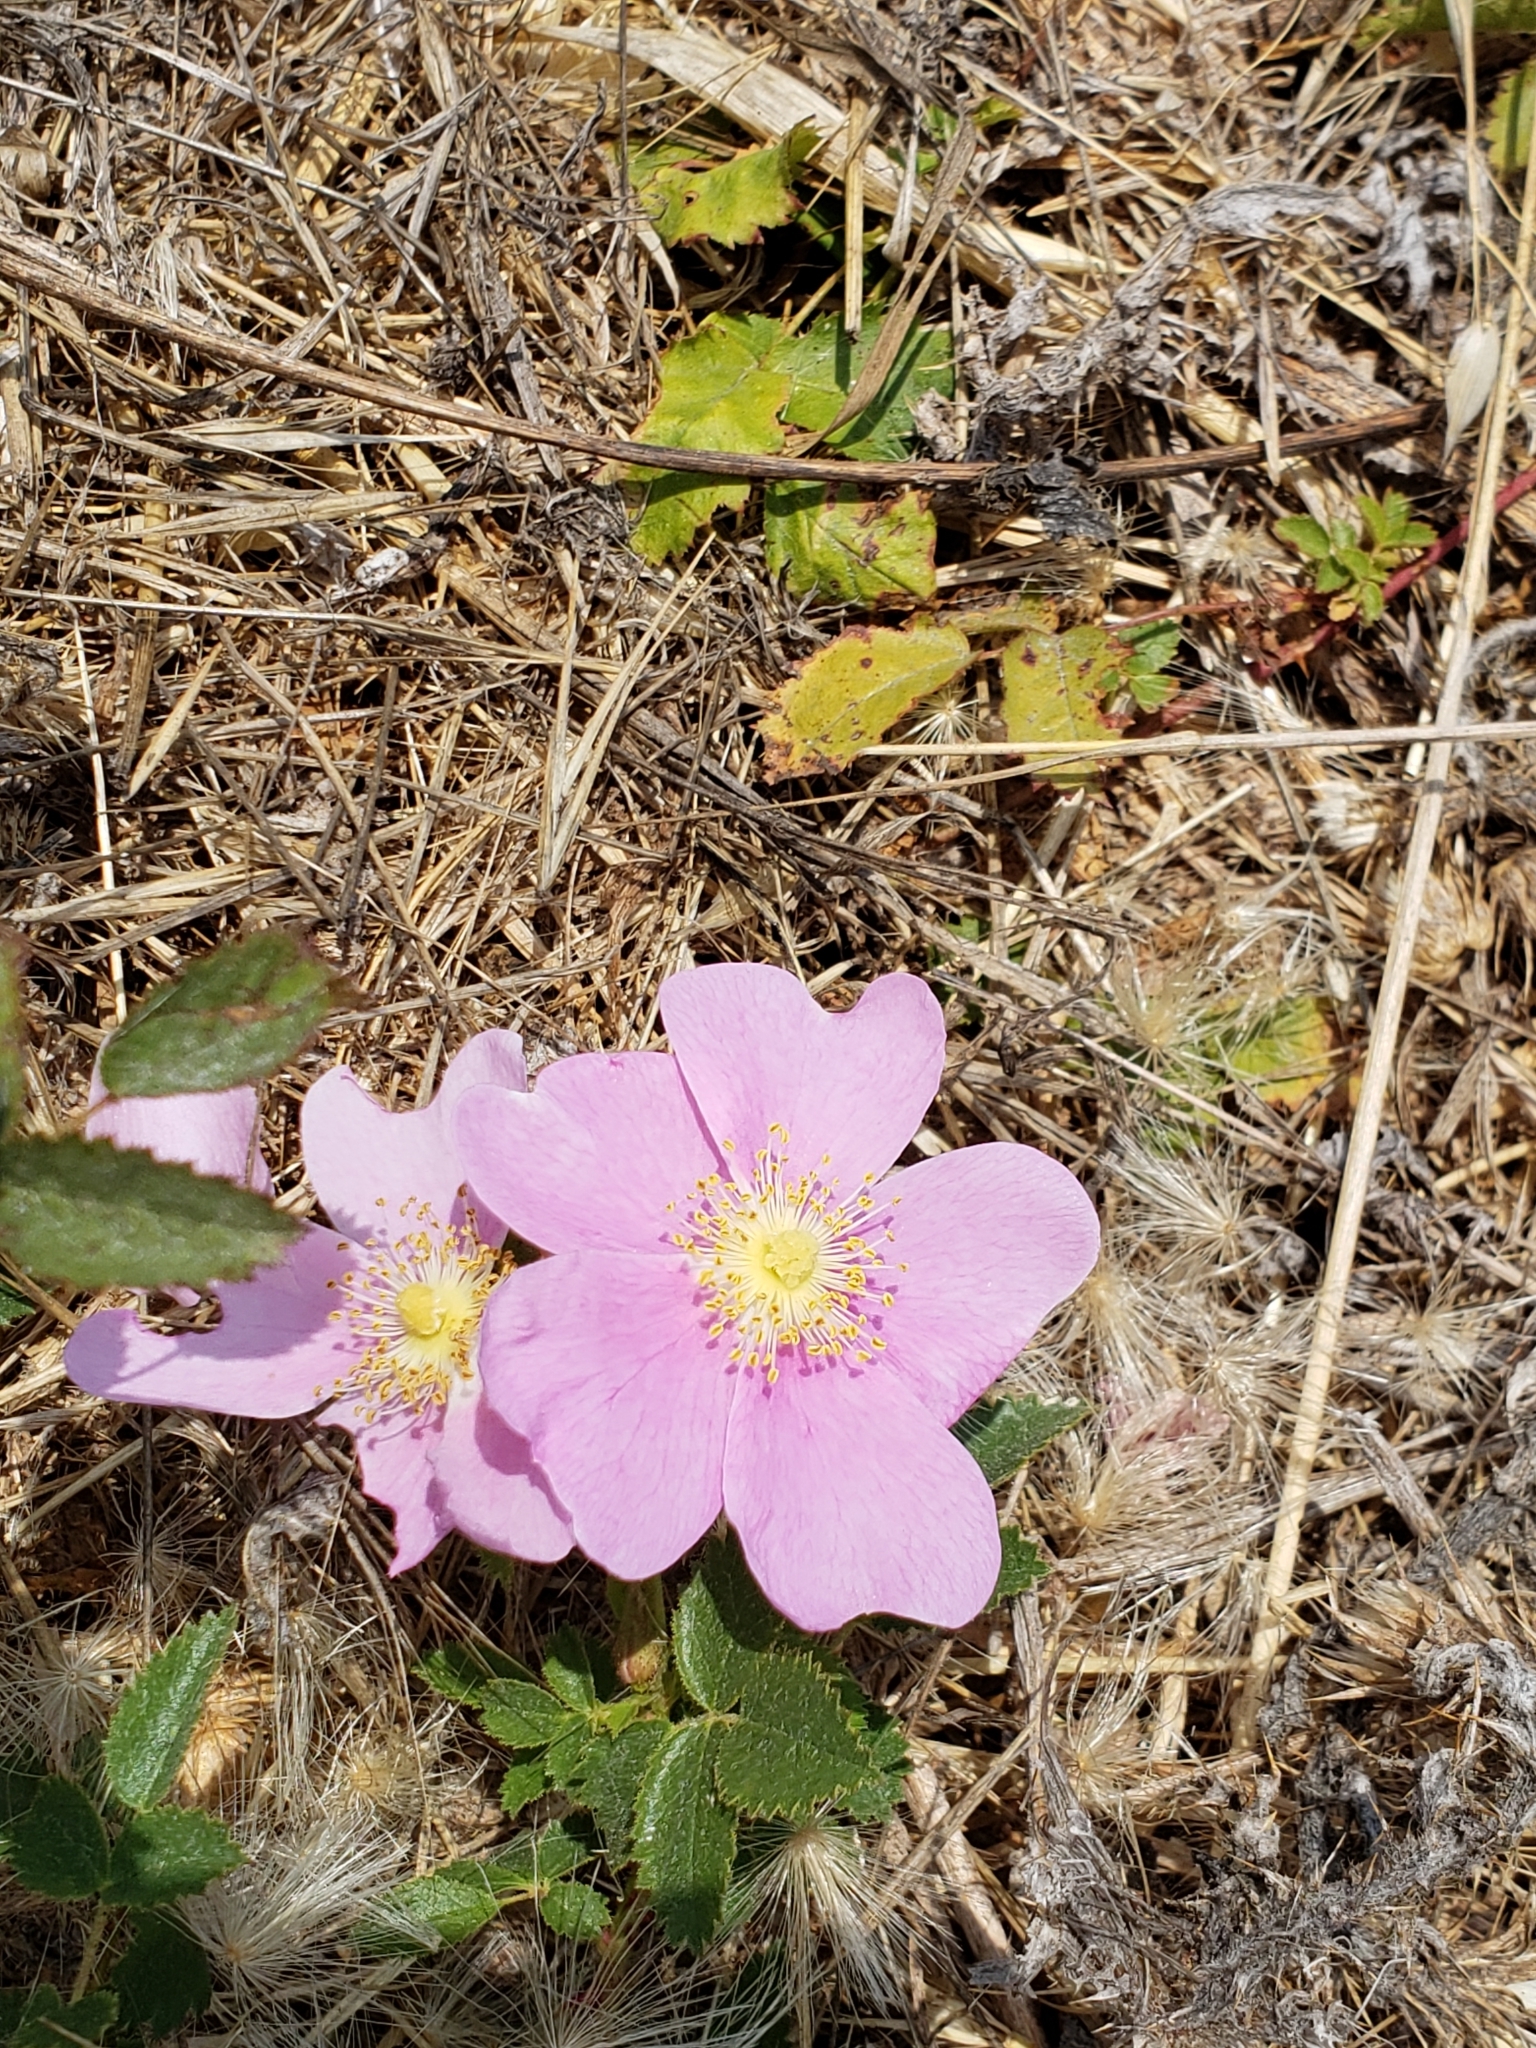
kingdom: Plantae
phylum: Tracheophyta
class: Magnoliopsida
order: Rosales
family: Rosaceae
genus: Rosa
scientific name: Rosa californica
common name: California rose
